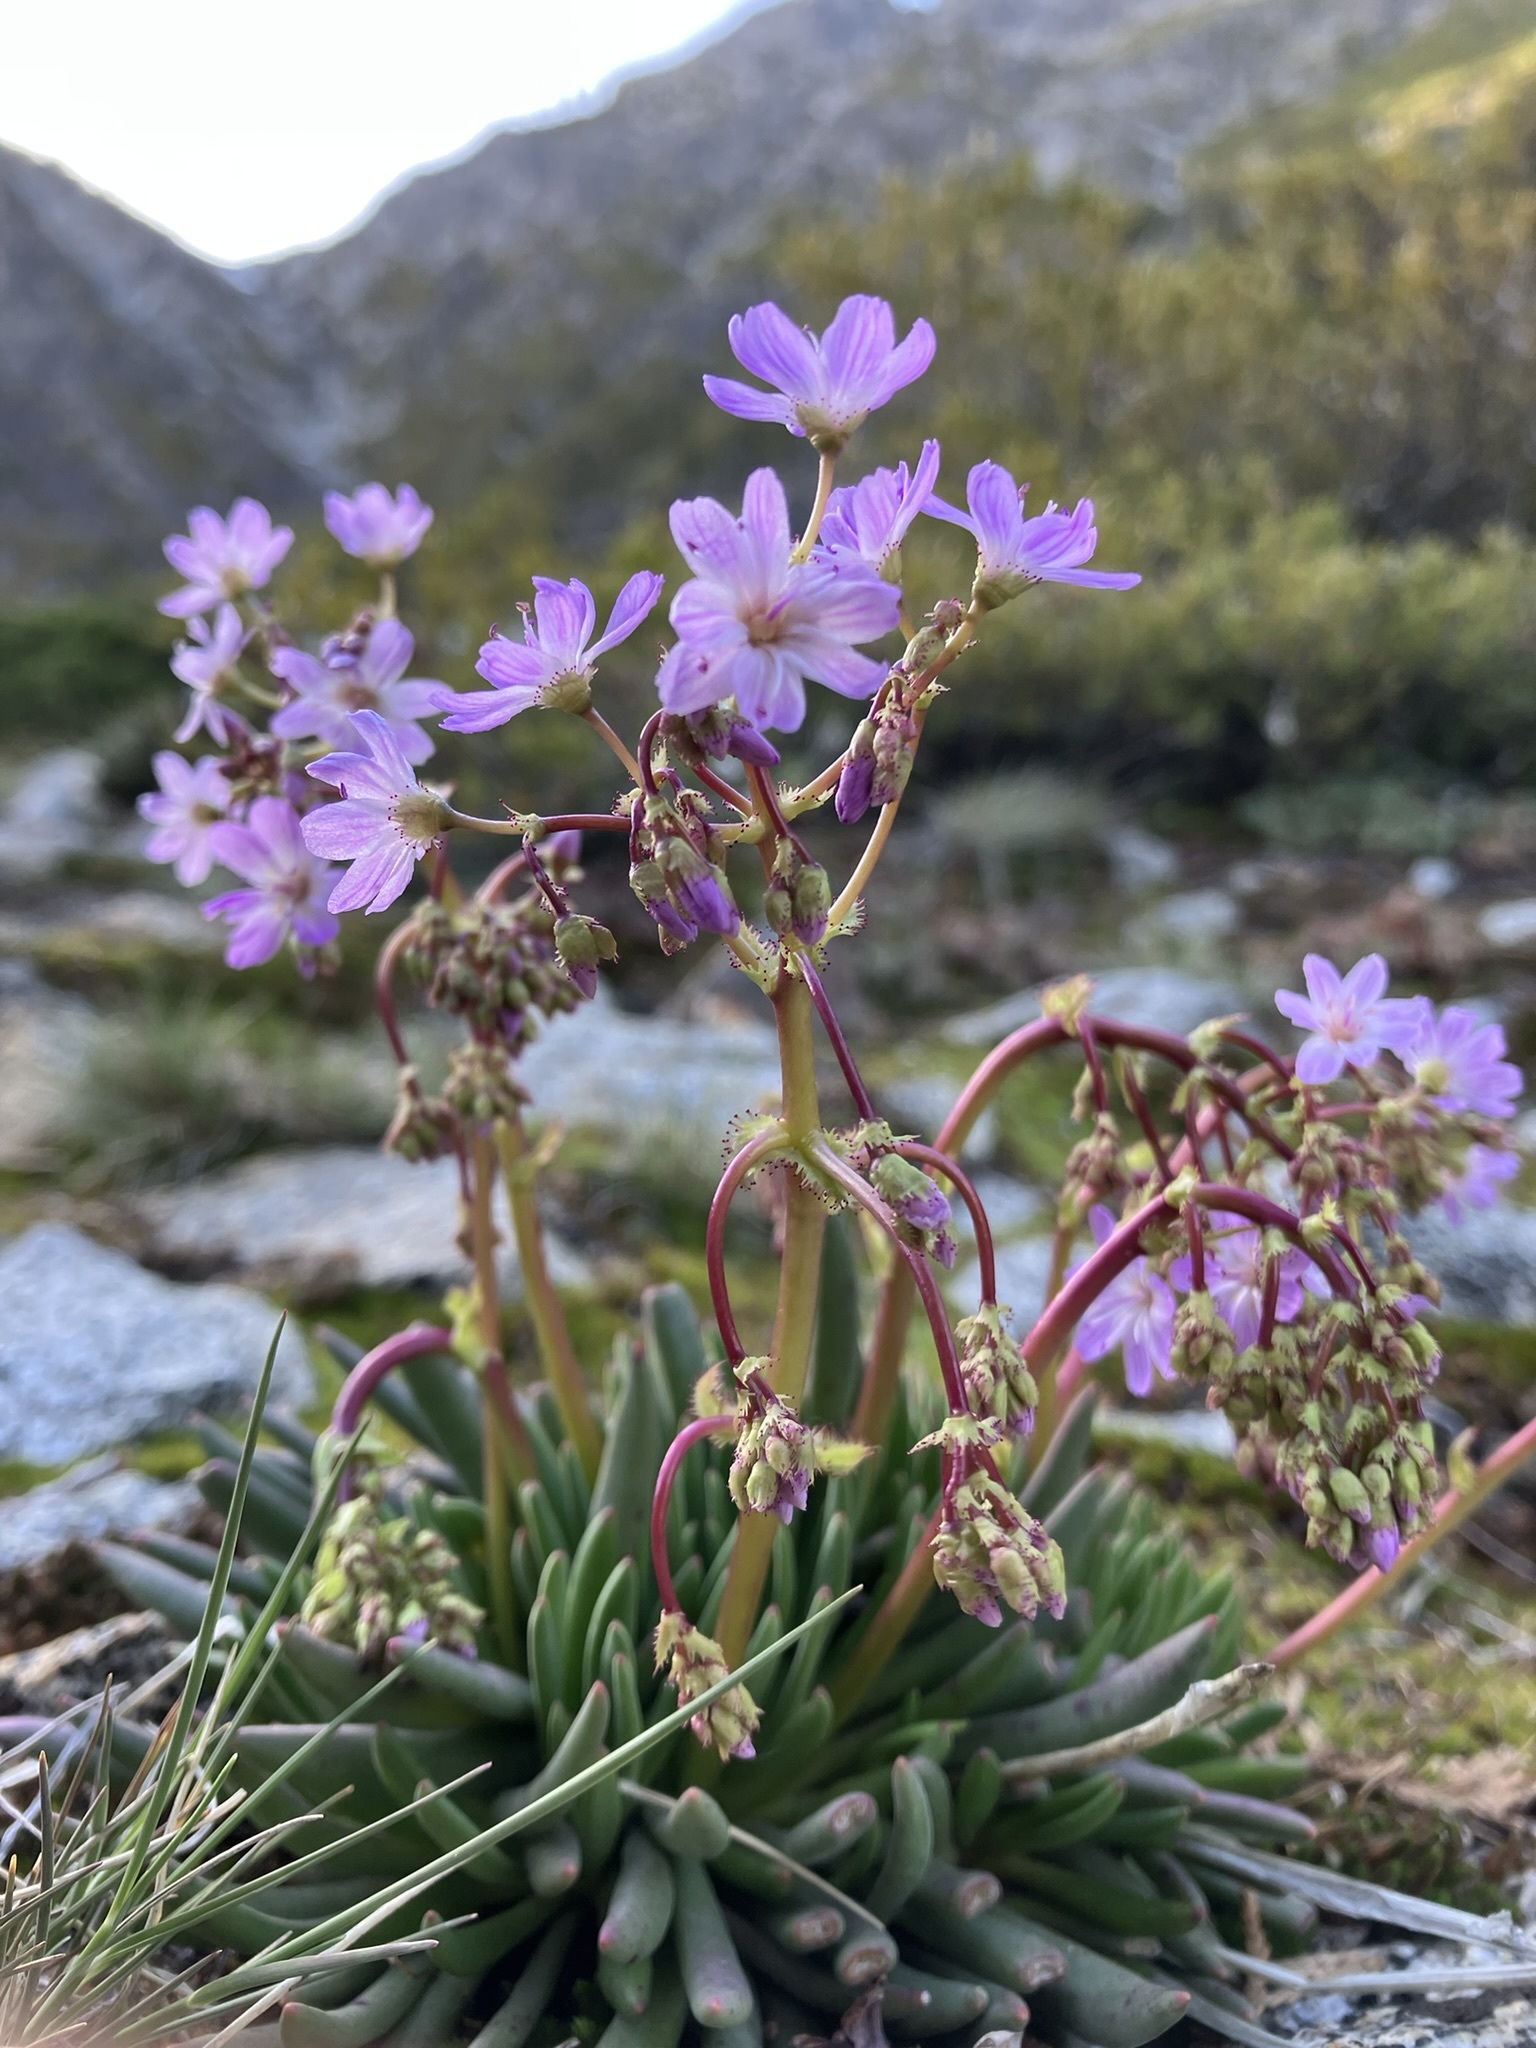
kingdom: Plantae
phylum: Tracheophyta
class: Magnoliopsida
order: Caryophyllales
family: Montiaceae
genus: Lewisia
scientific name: Lewisia leeana
